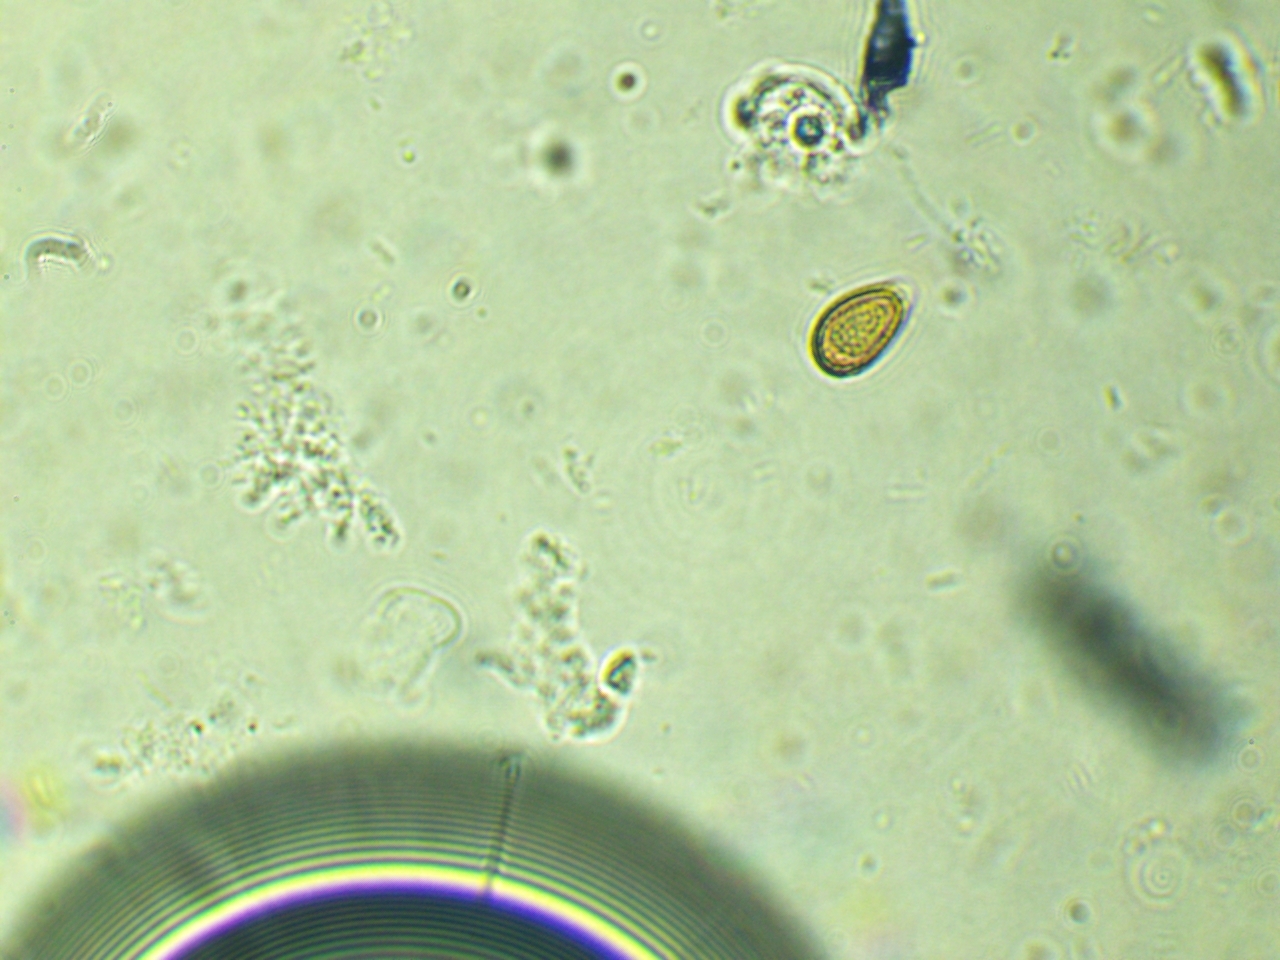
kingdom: Fungi
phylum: Basidiomycota
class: Agaricomycetes
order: Agaricales
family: Amanitaceae
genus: Amanita
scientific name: Amanita pantherina
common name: Panthercap
